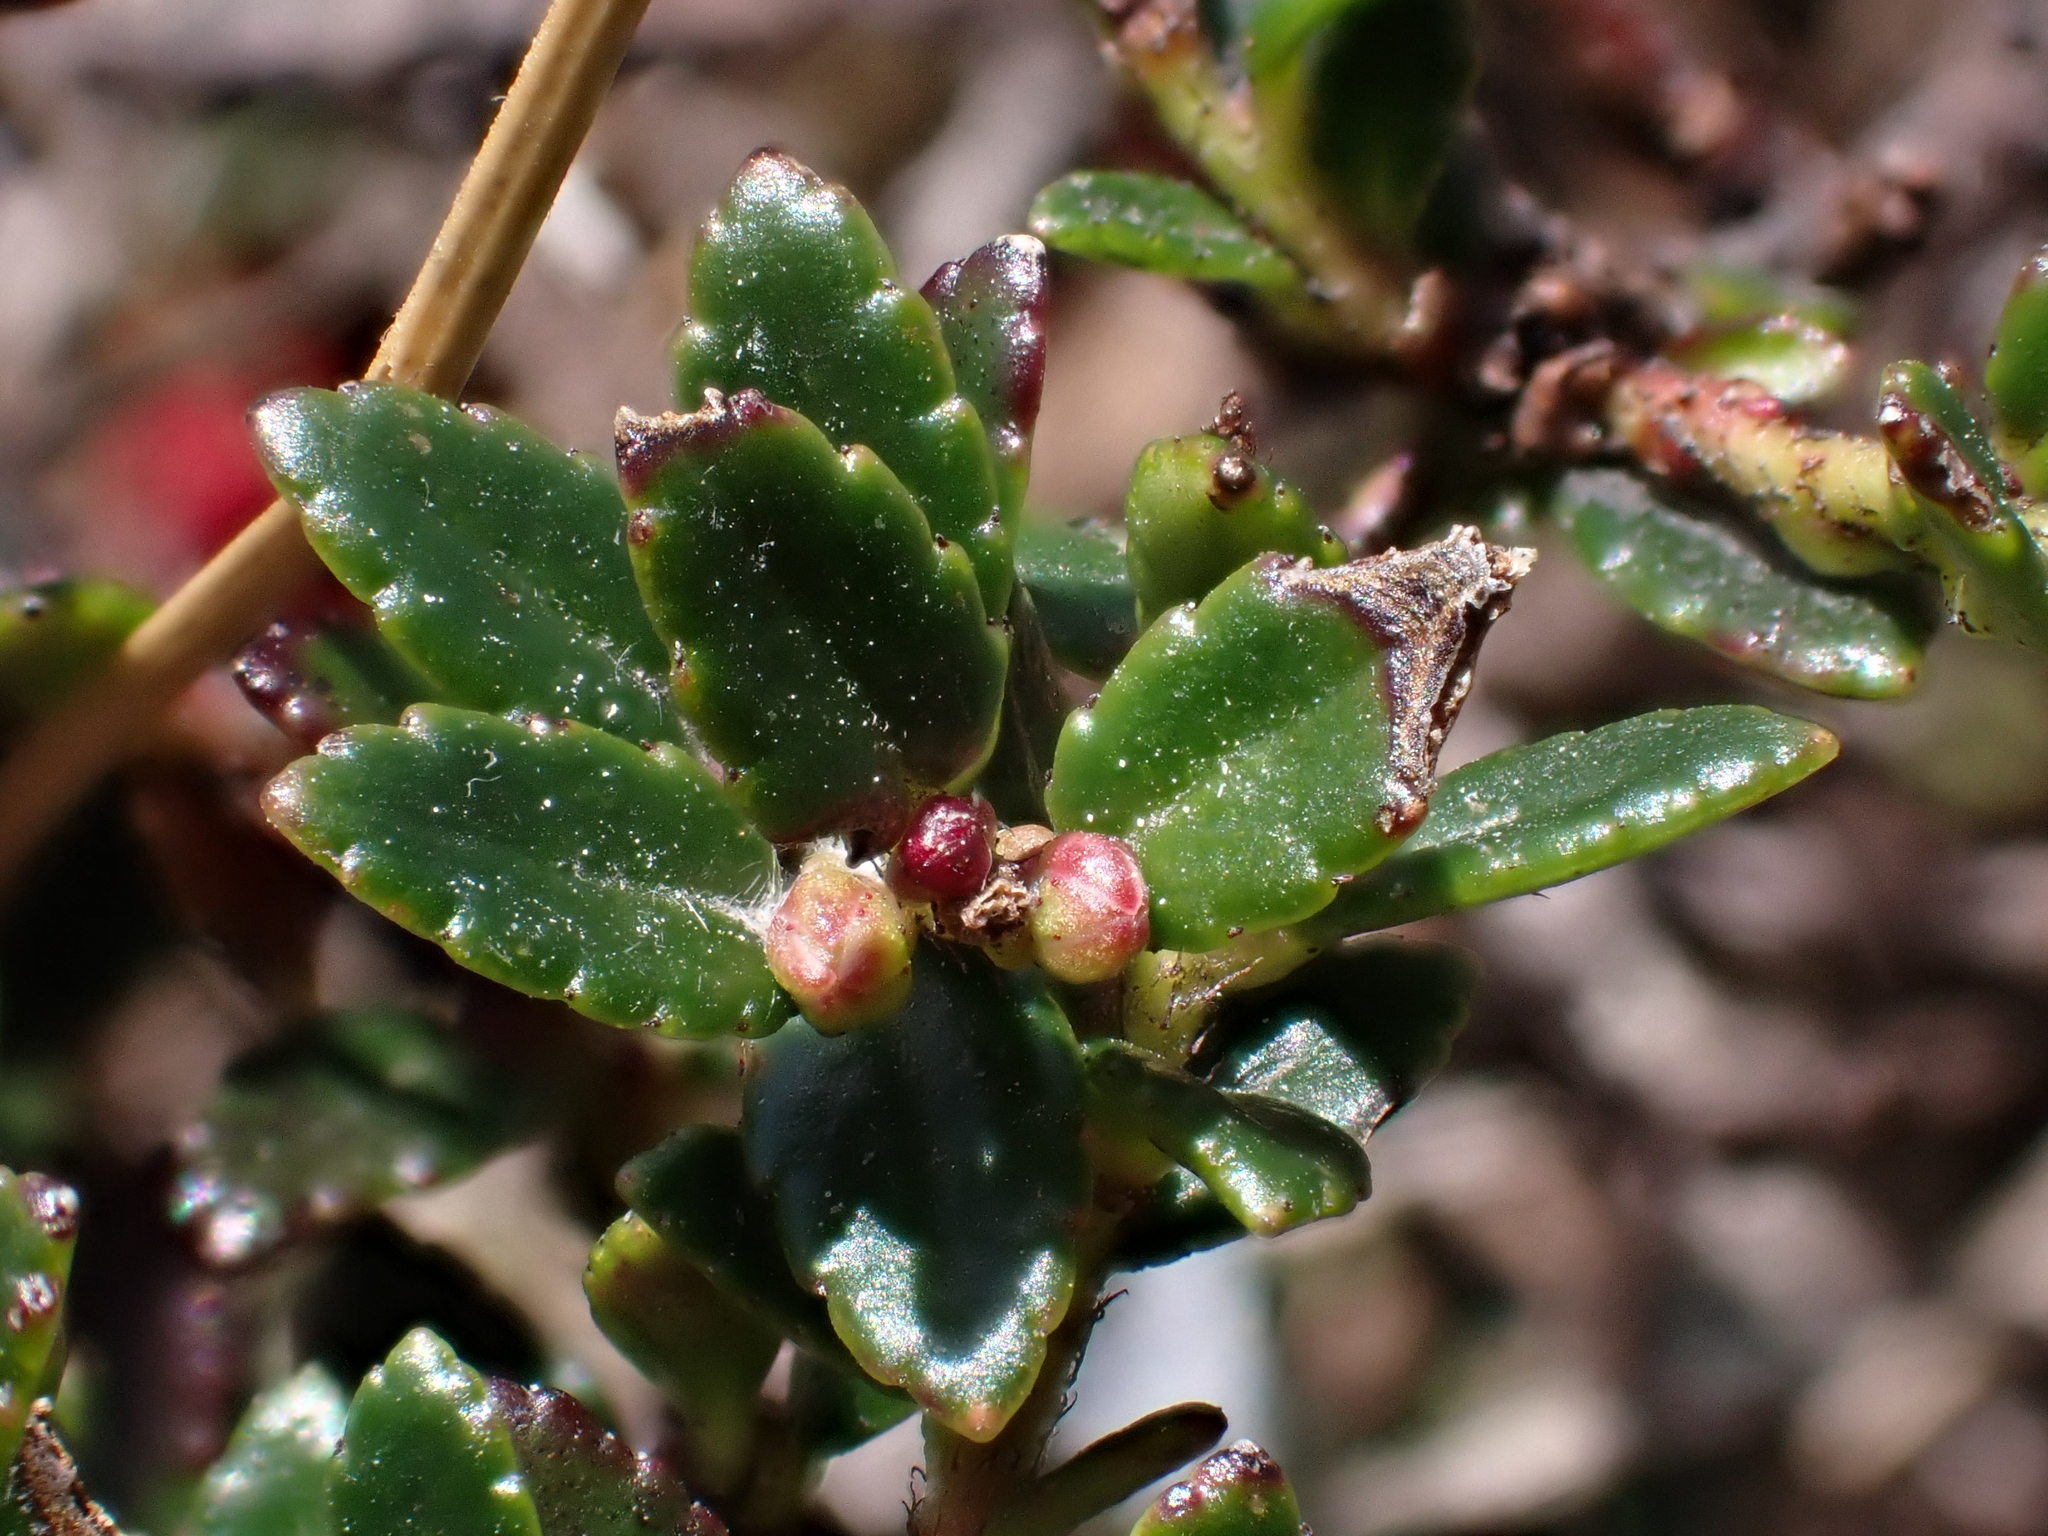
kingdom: Plantae
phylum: Tracheophyta
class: Magnoliopsida
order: Ericales
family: Ericaceae
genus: Gaultheria
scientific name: Gaultheria myrsinoides
